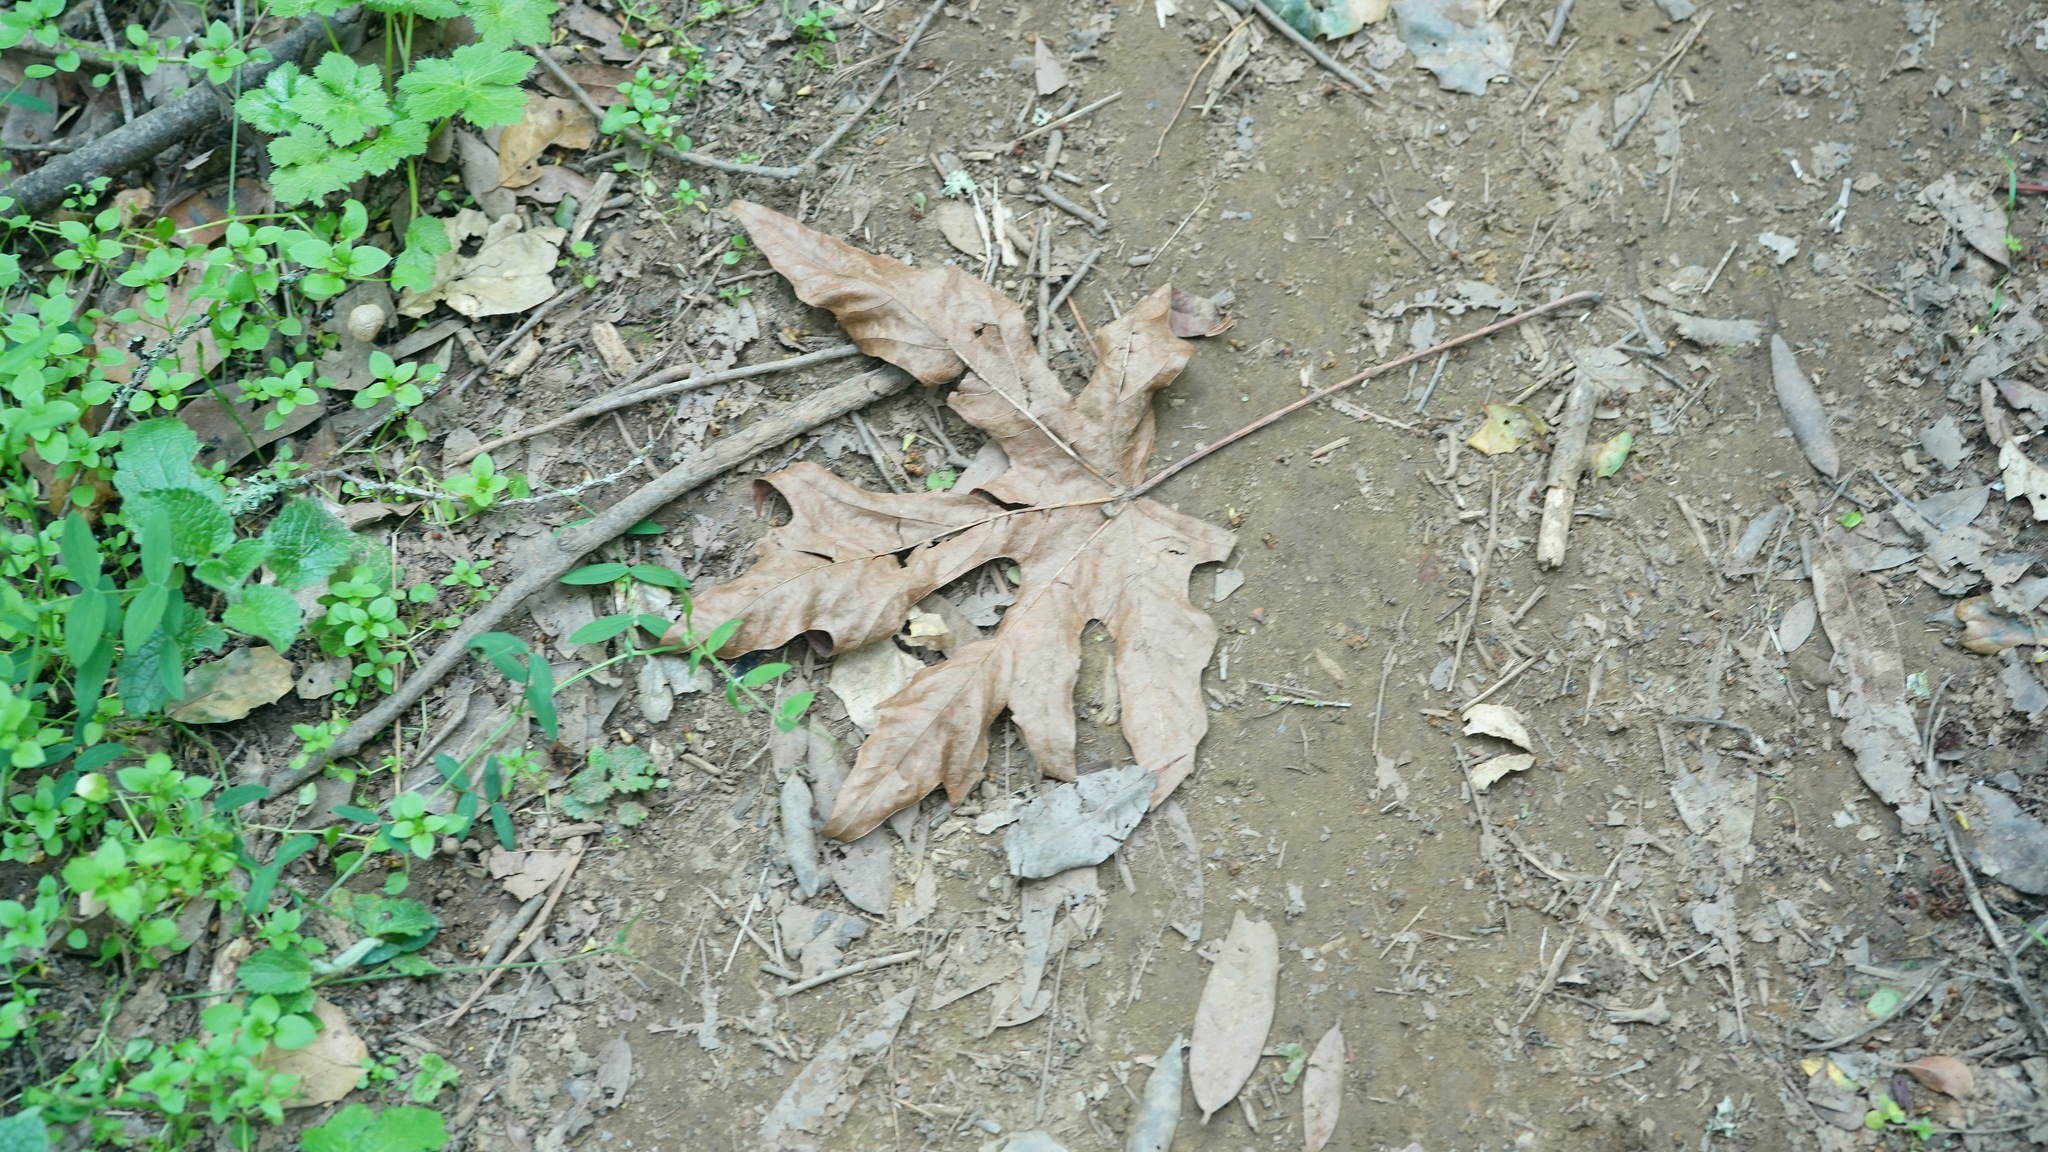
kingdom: Plantae
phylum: Tracheophyta
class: Magnoliopsida
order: Sapindales
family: Sapindaceae
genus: Acer
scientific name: Acer macrophyllum
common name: Oregon maple
